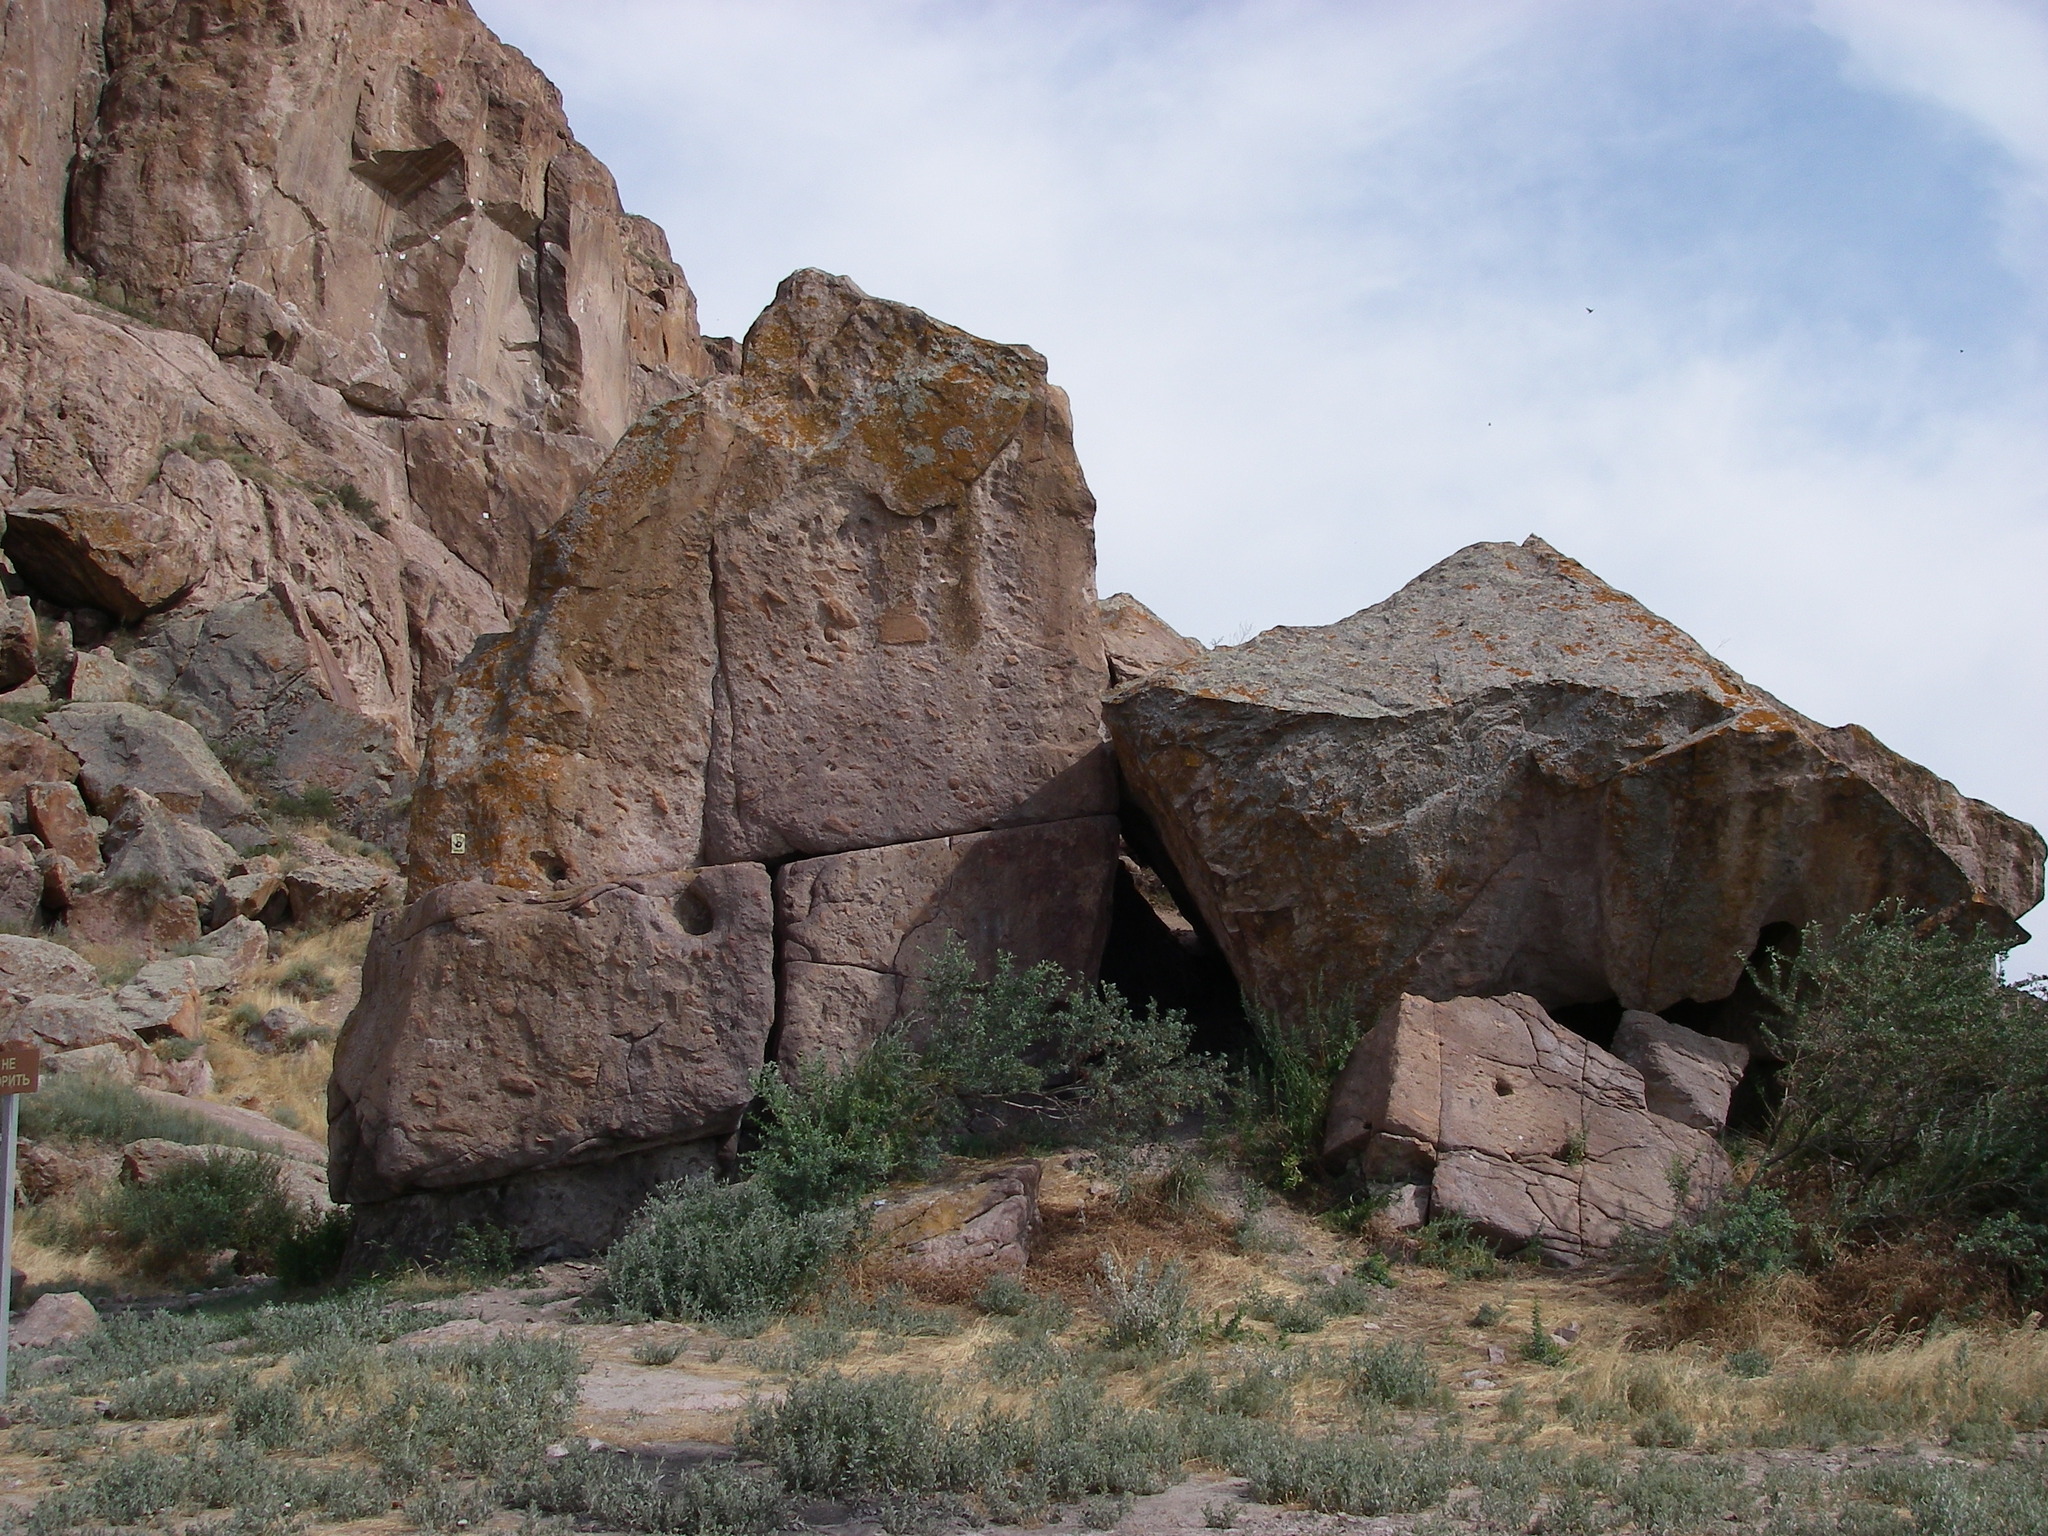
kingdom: Plantae
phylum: Tracheophyta
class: Magnoliopsida
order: Fabales
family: Fabaceae
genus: Caragana
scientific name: Caragana halodendron
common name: Siberian salt-tree
